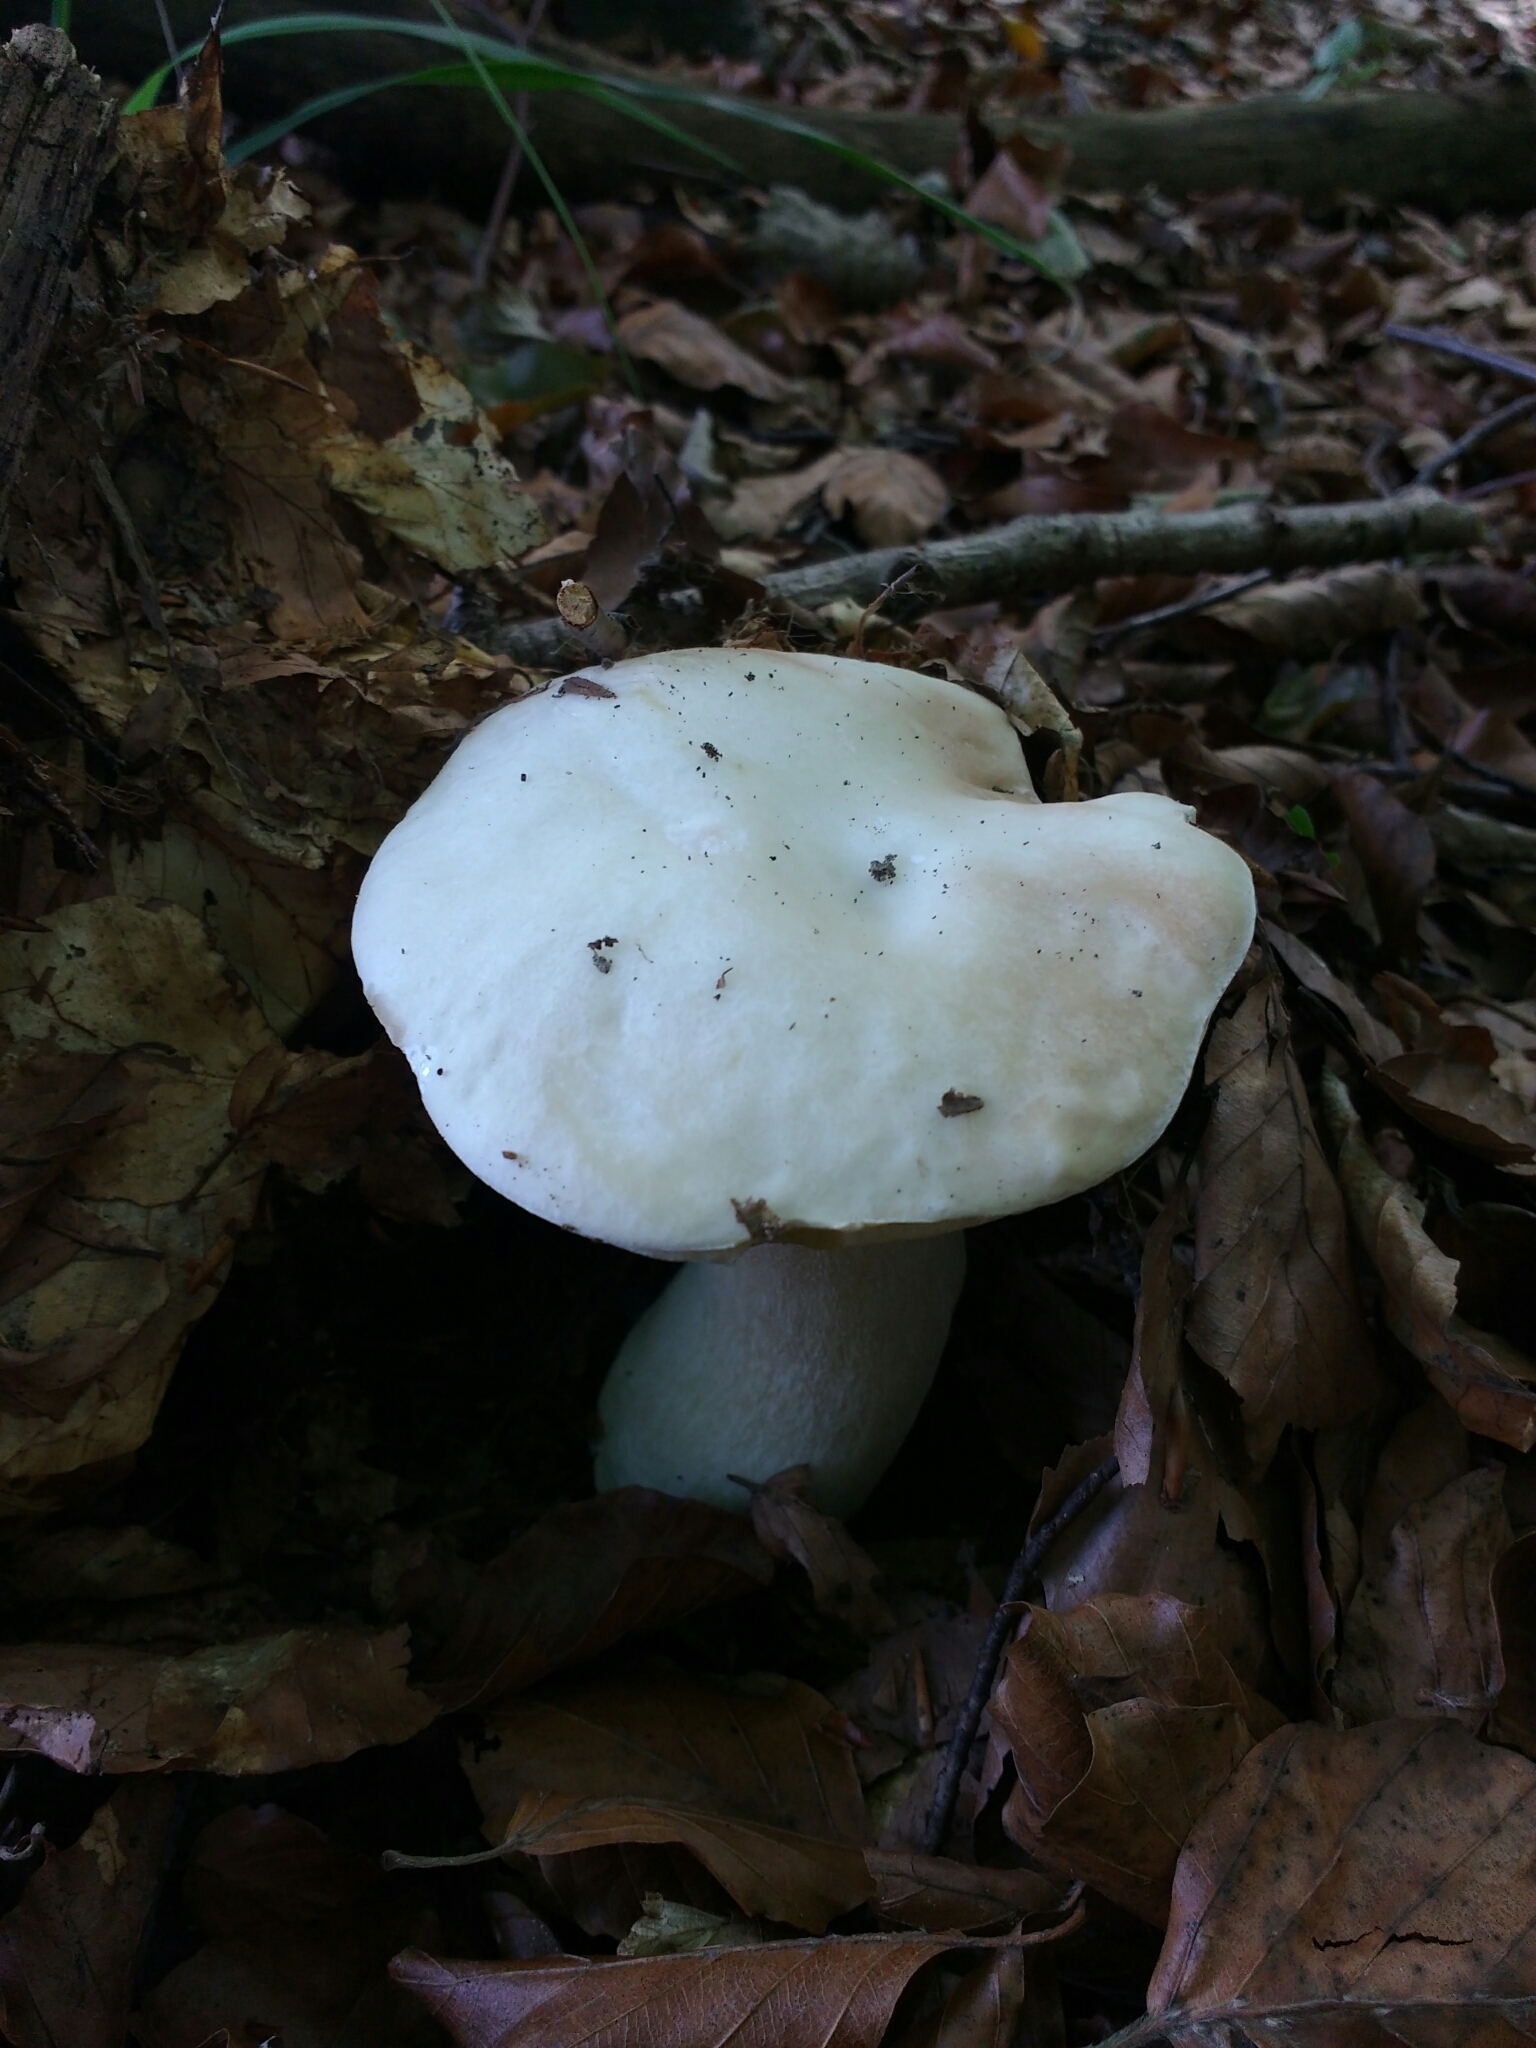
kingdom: Fungi
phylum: Basidiomycota
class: Agaricomycetes
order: Boletales
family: Boletaceae
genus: Boletus
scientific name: Boletus edulis
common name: Cep
